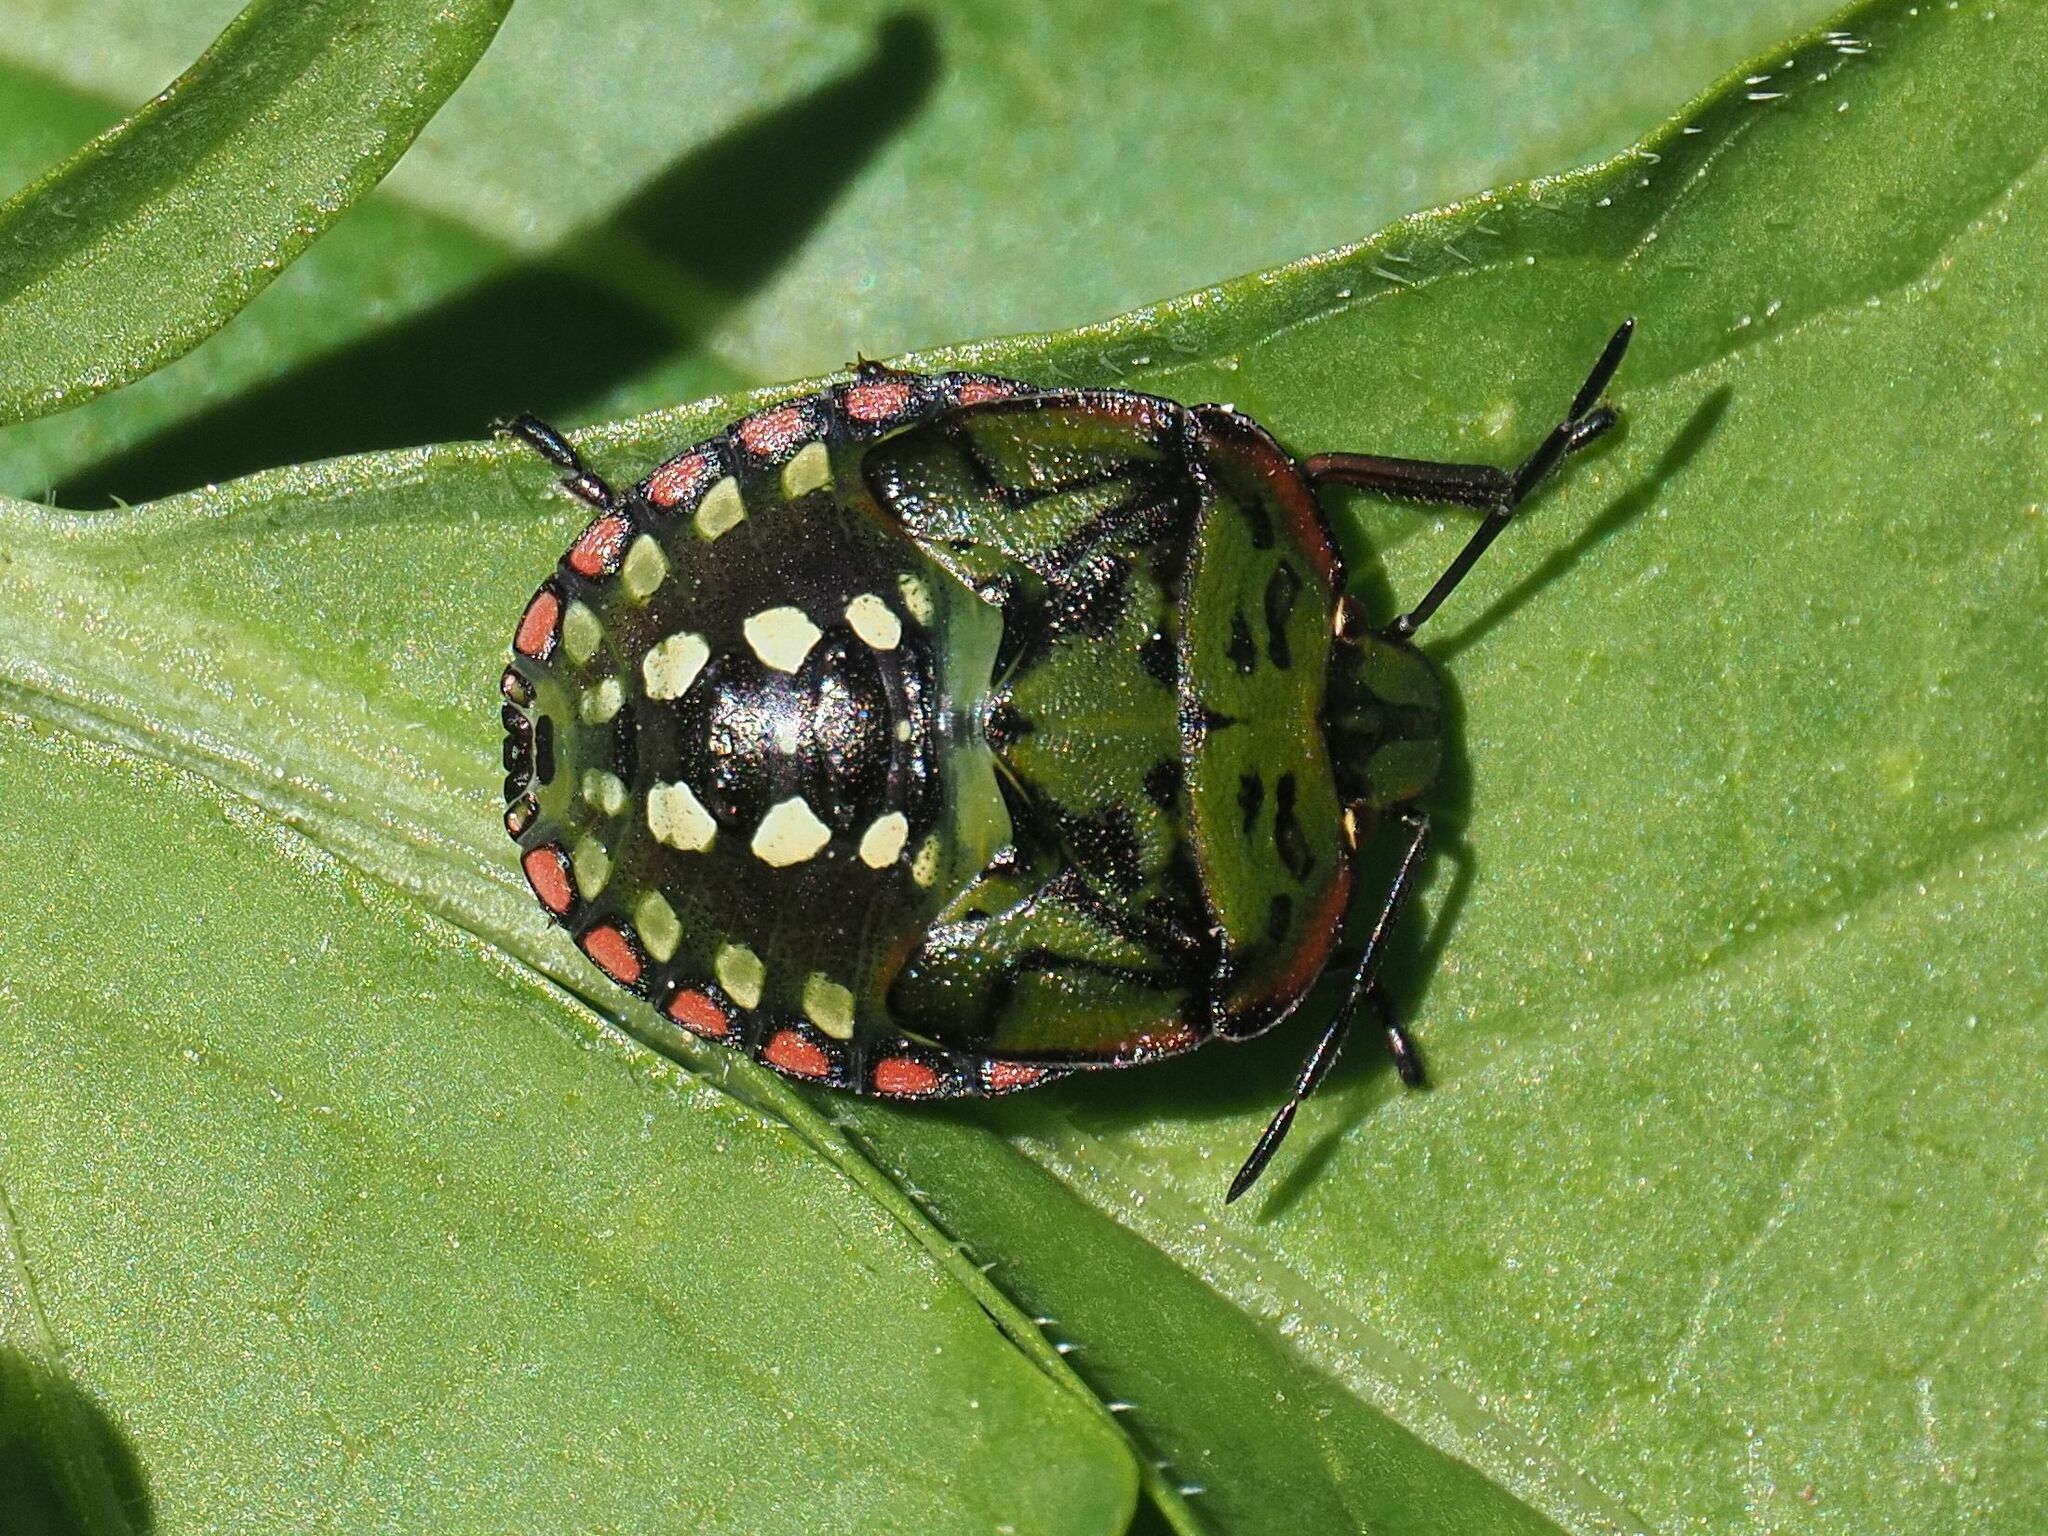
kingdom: Animalia
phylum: Arthropoda
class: Insecta
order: Hemiptera
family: Pentatomidae
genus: Nezara
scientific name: Nezara viridula
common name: Southern green stink bug
